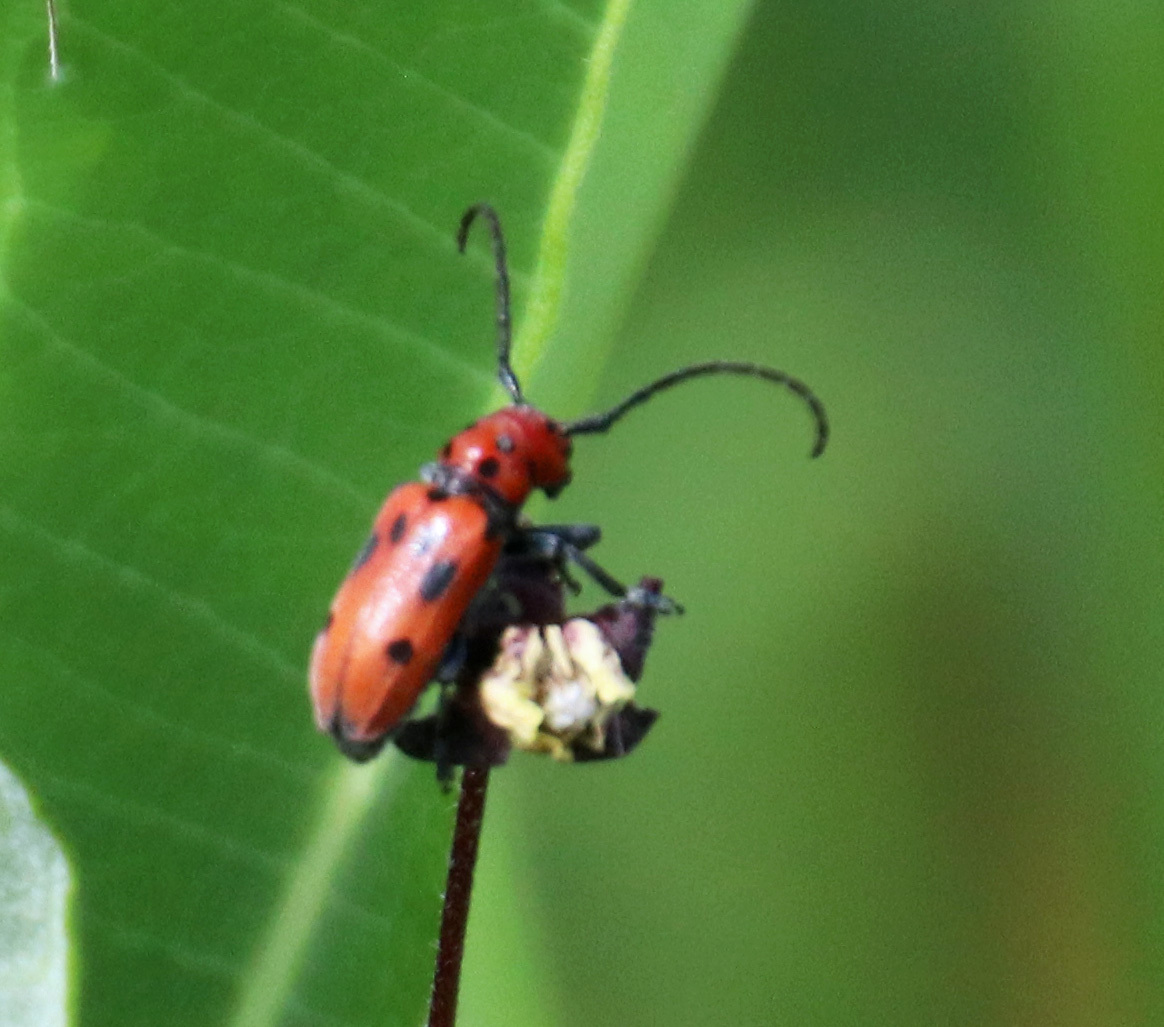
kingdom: Animalia
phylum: Arthropoda
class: Insecta
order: Coleoptera
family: Cerambycidae
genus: Tetraopes
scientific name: Tetraopes tetrophthalmus
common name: Red milkweed beetle
